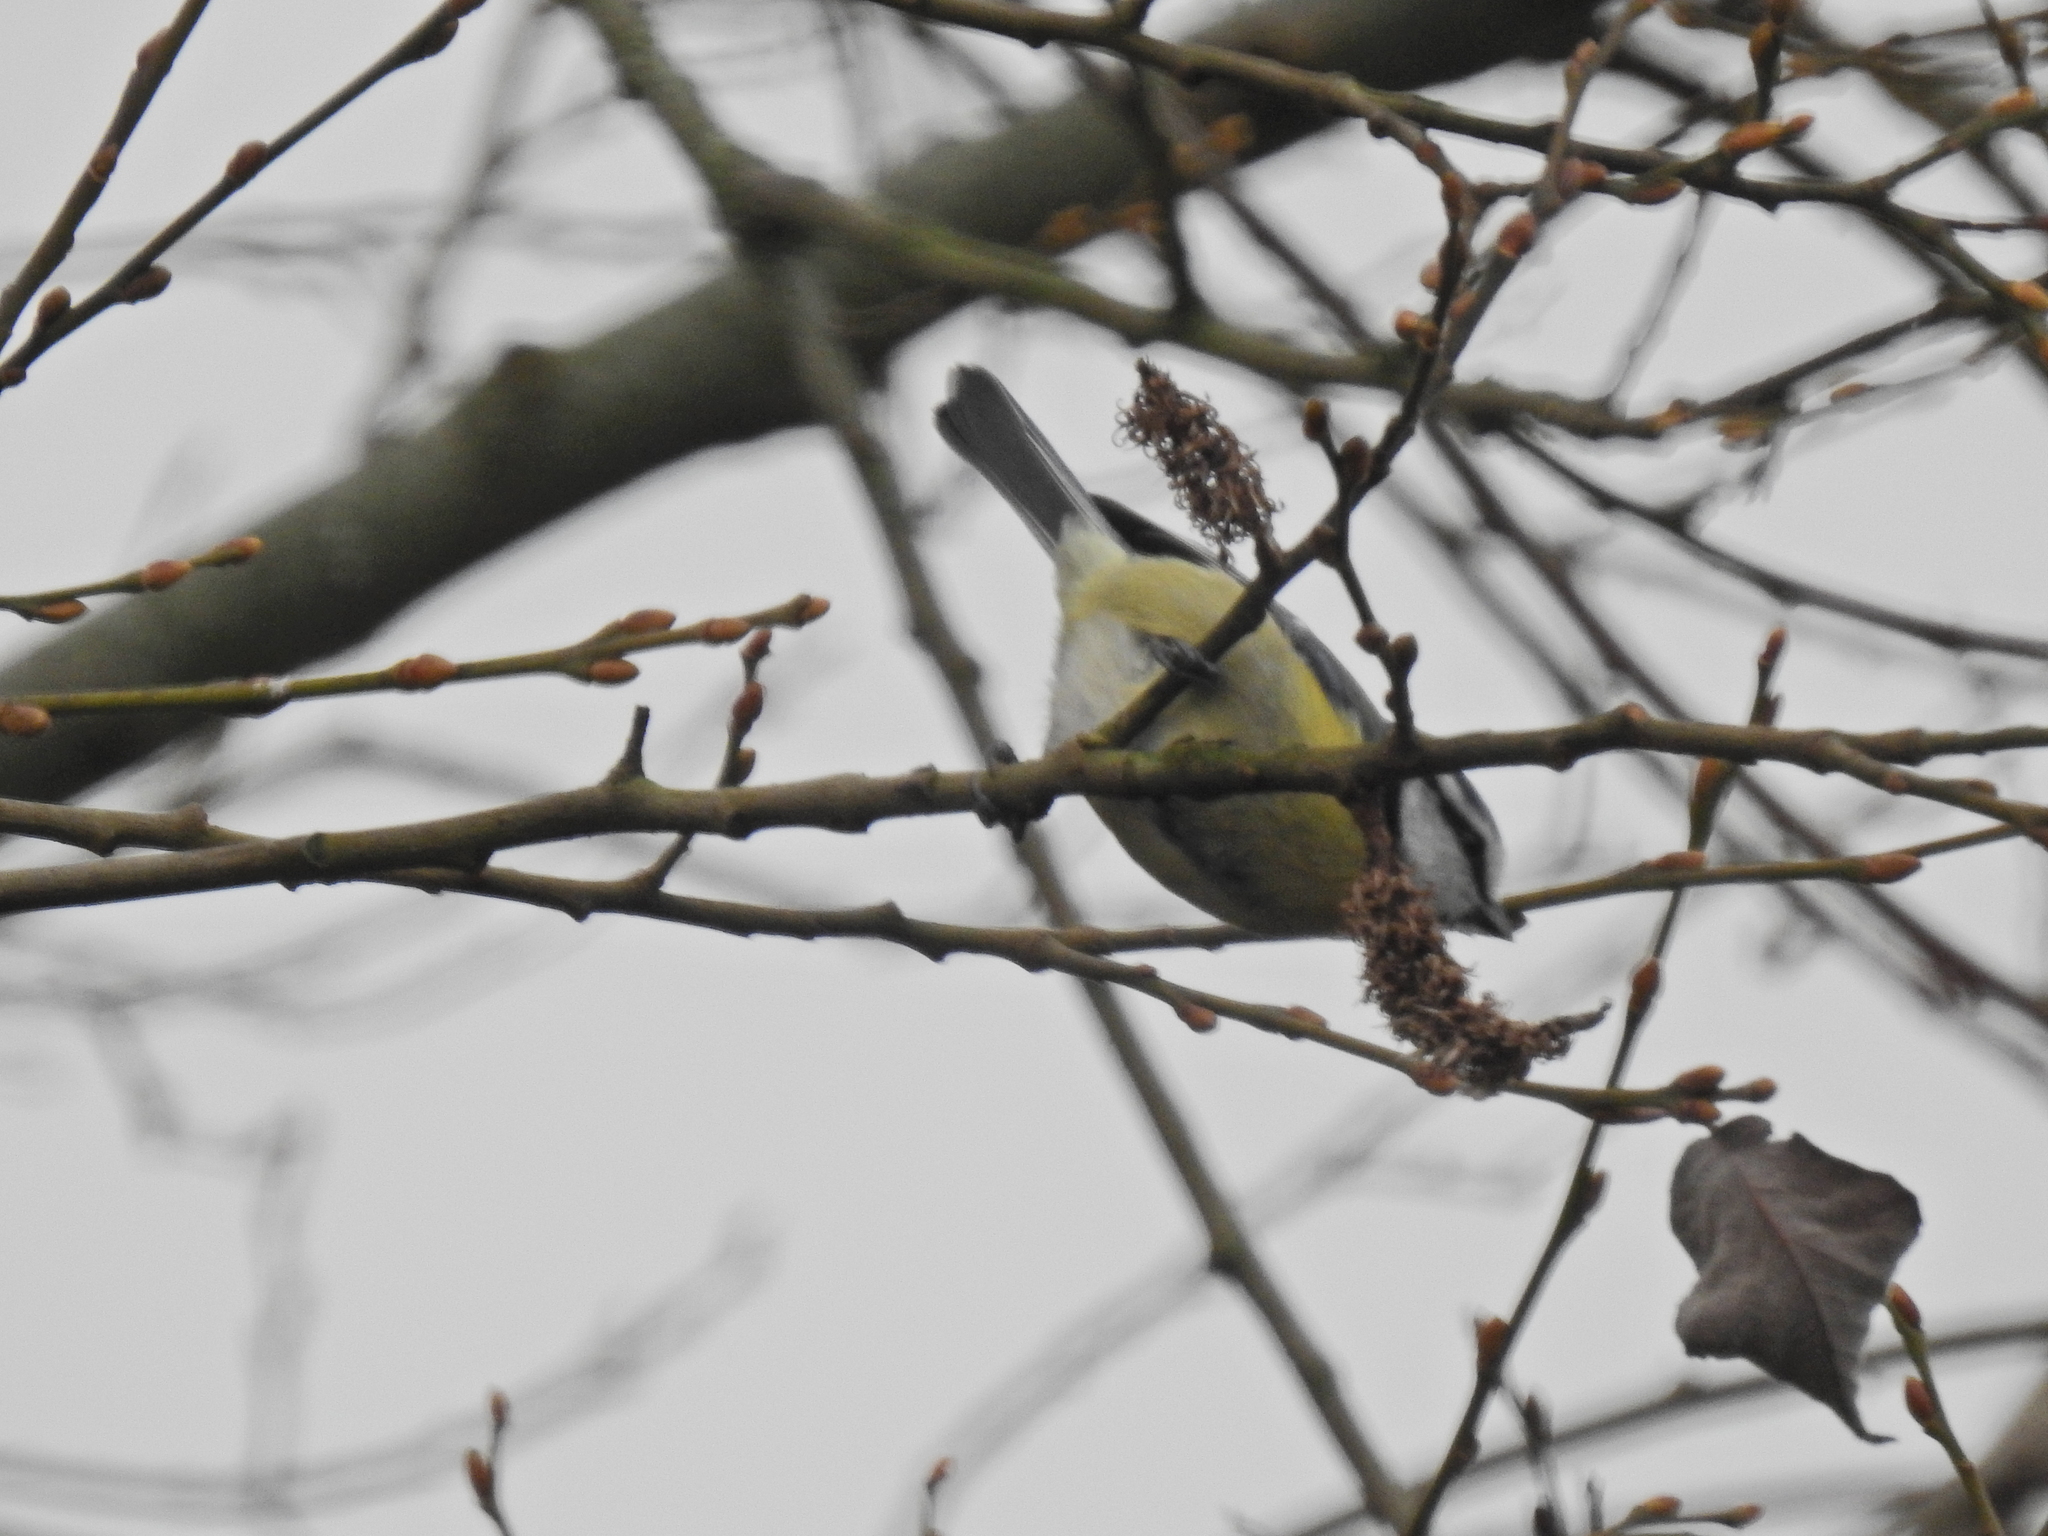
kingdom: Animalia
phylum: Chordata
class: Aves
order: Passeriformes
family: Paridae
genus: Cyanistes
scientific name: Cyanistes caeruleus
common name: Eurasian blue tit
